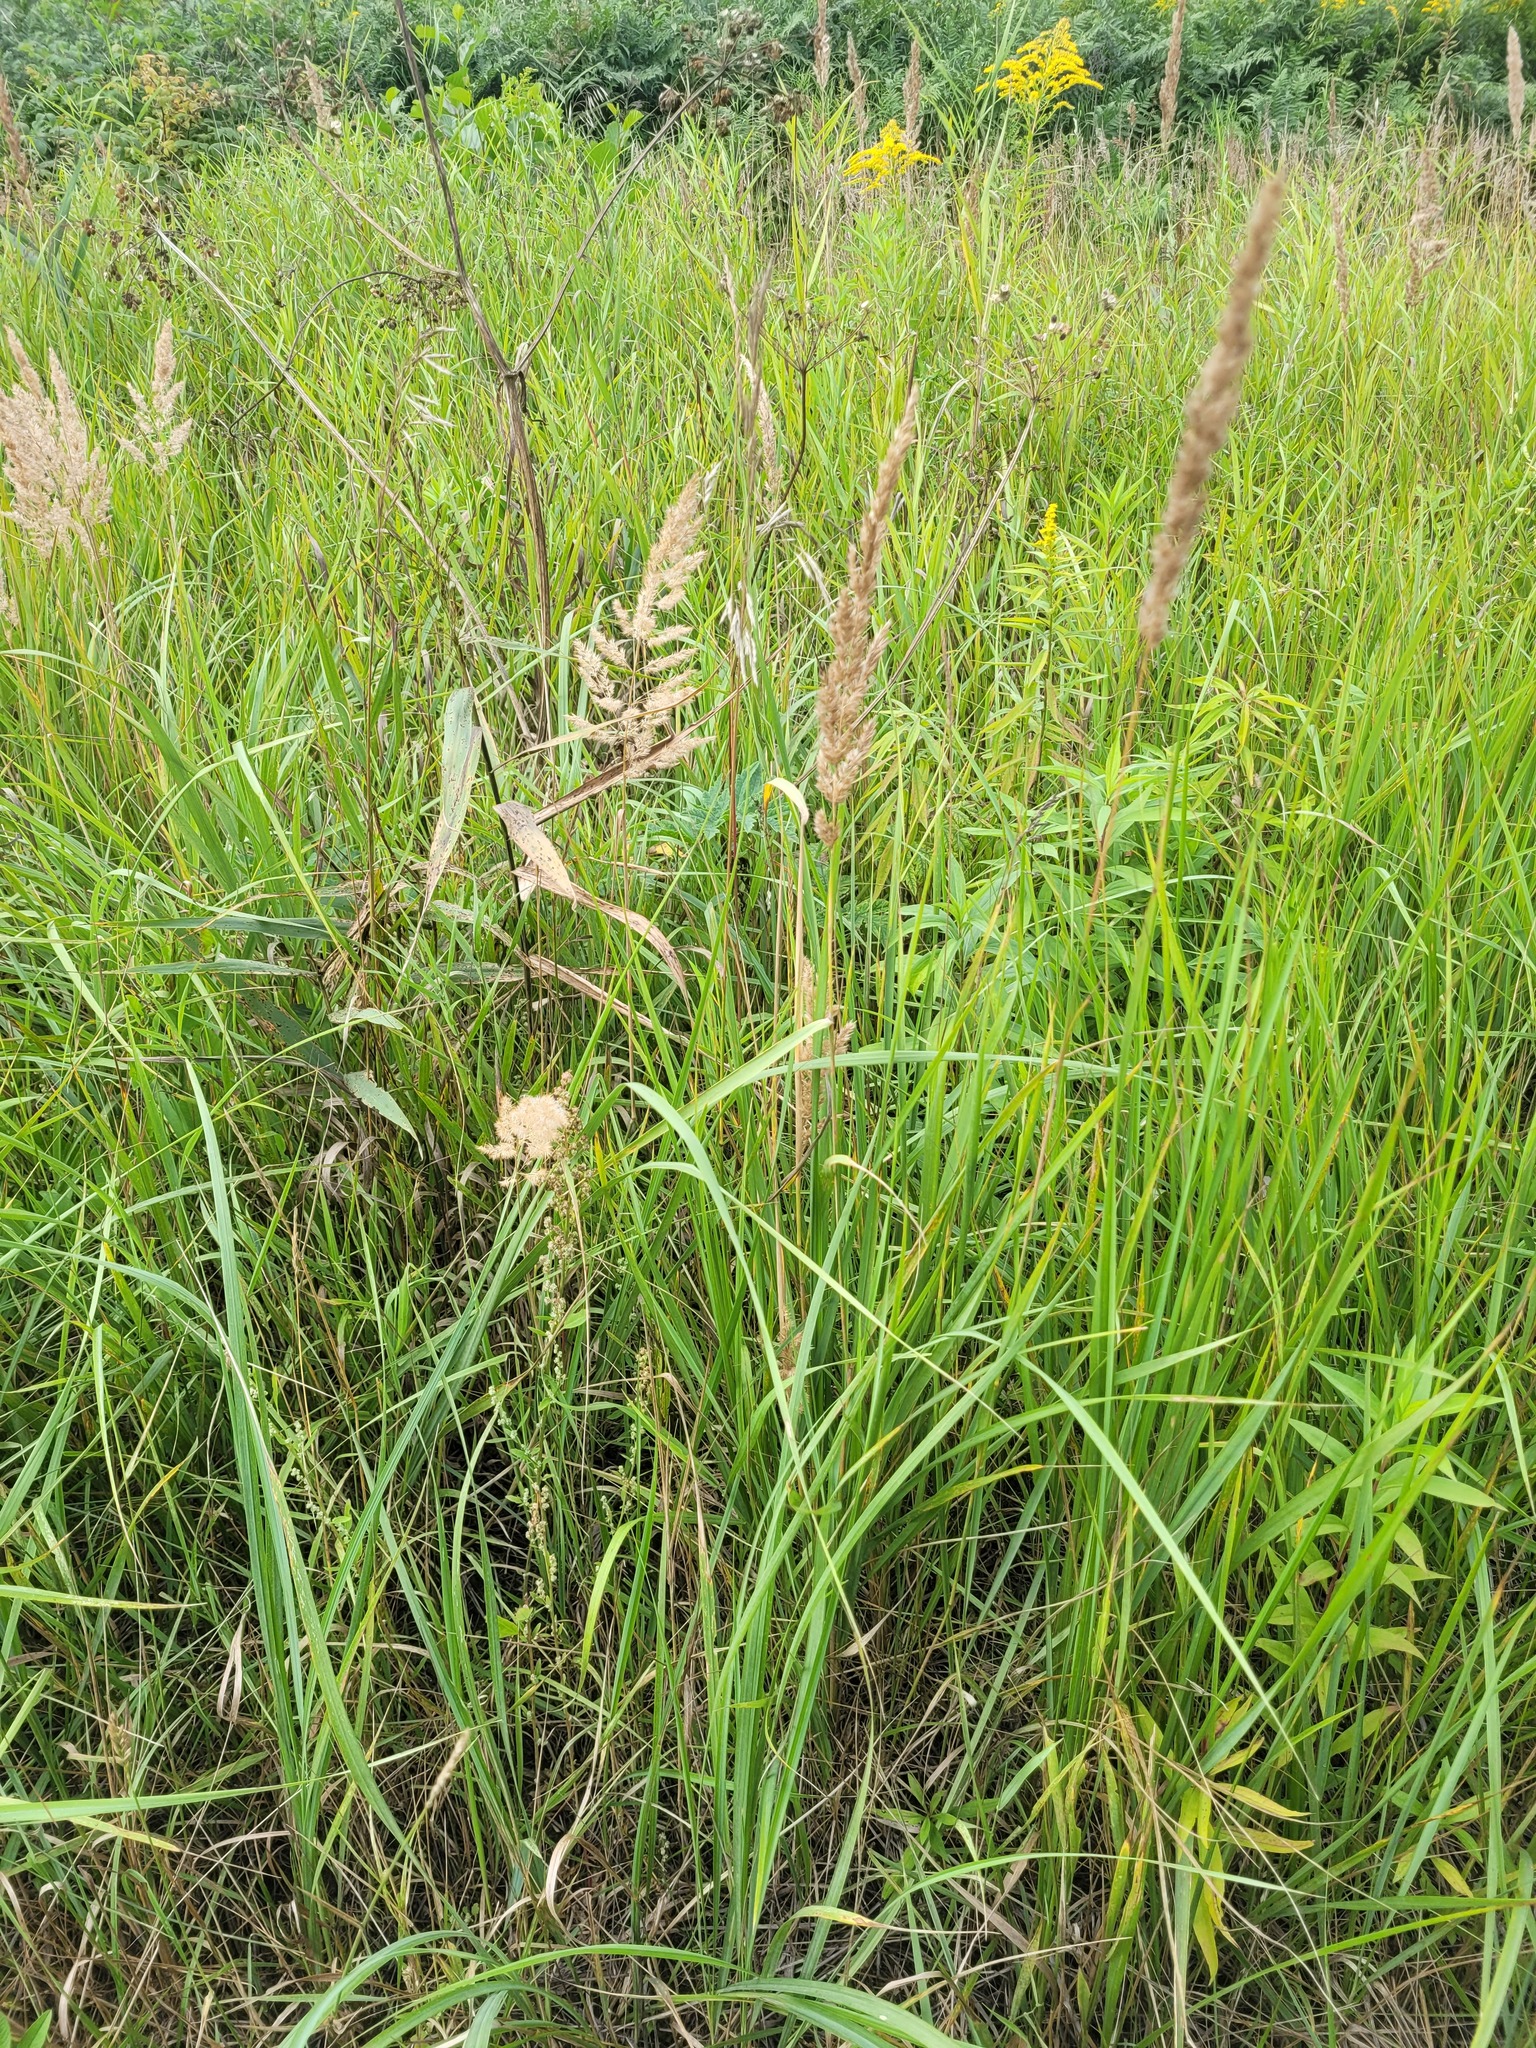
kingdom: Plantae
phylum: Tracheophyta
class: Liliopsida
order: Poales
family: Poaceae
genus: Calamagrostis
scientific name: Calamagrostis epigejos
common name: Wood small-reed
